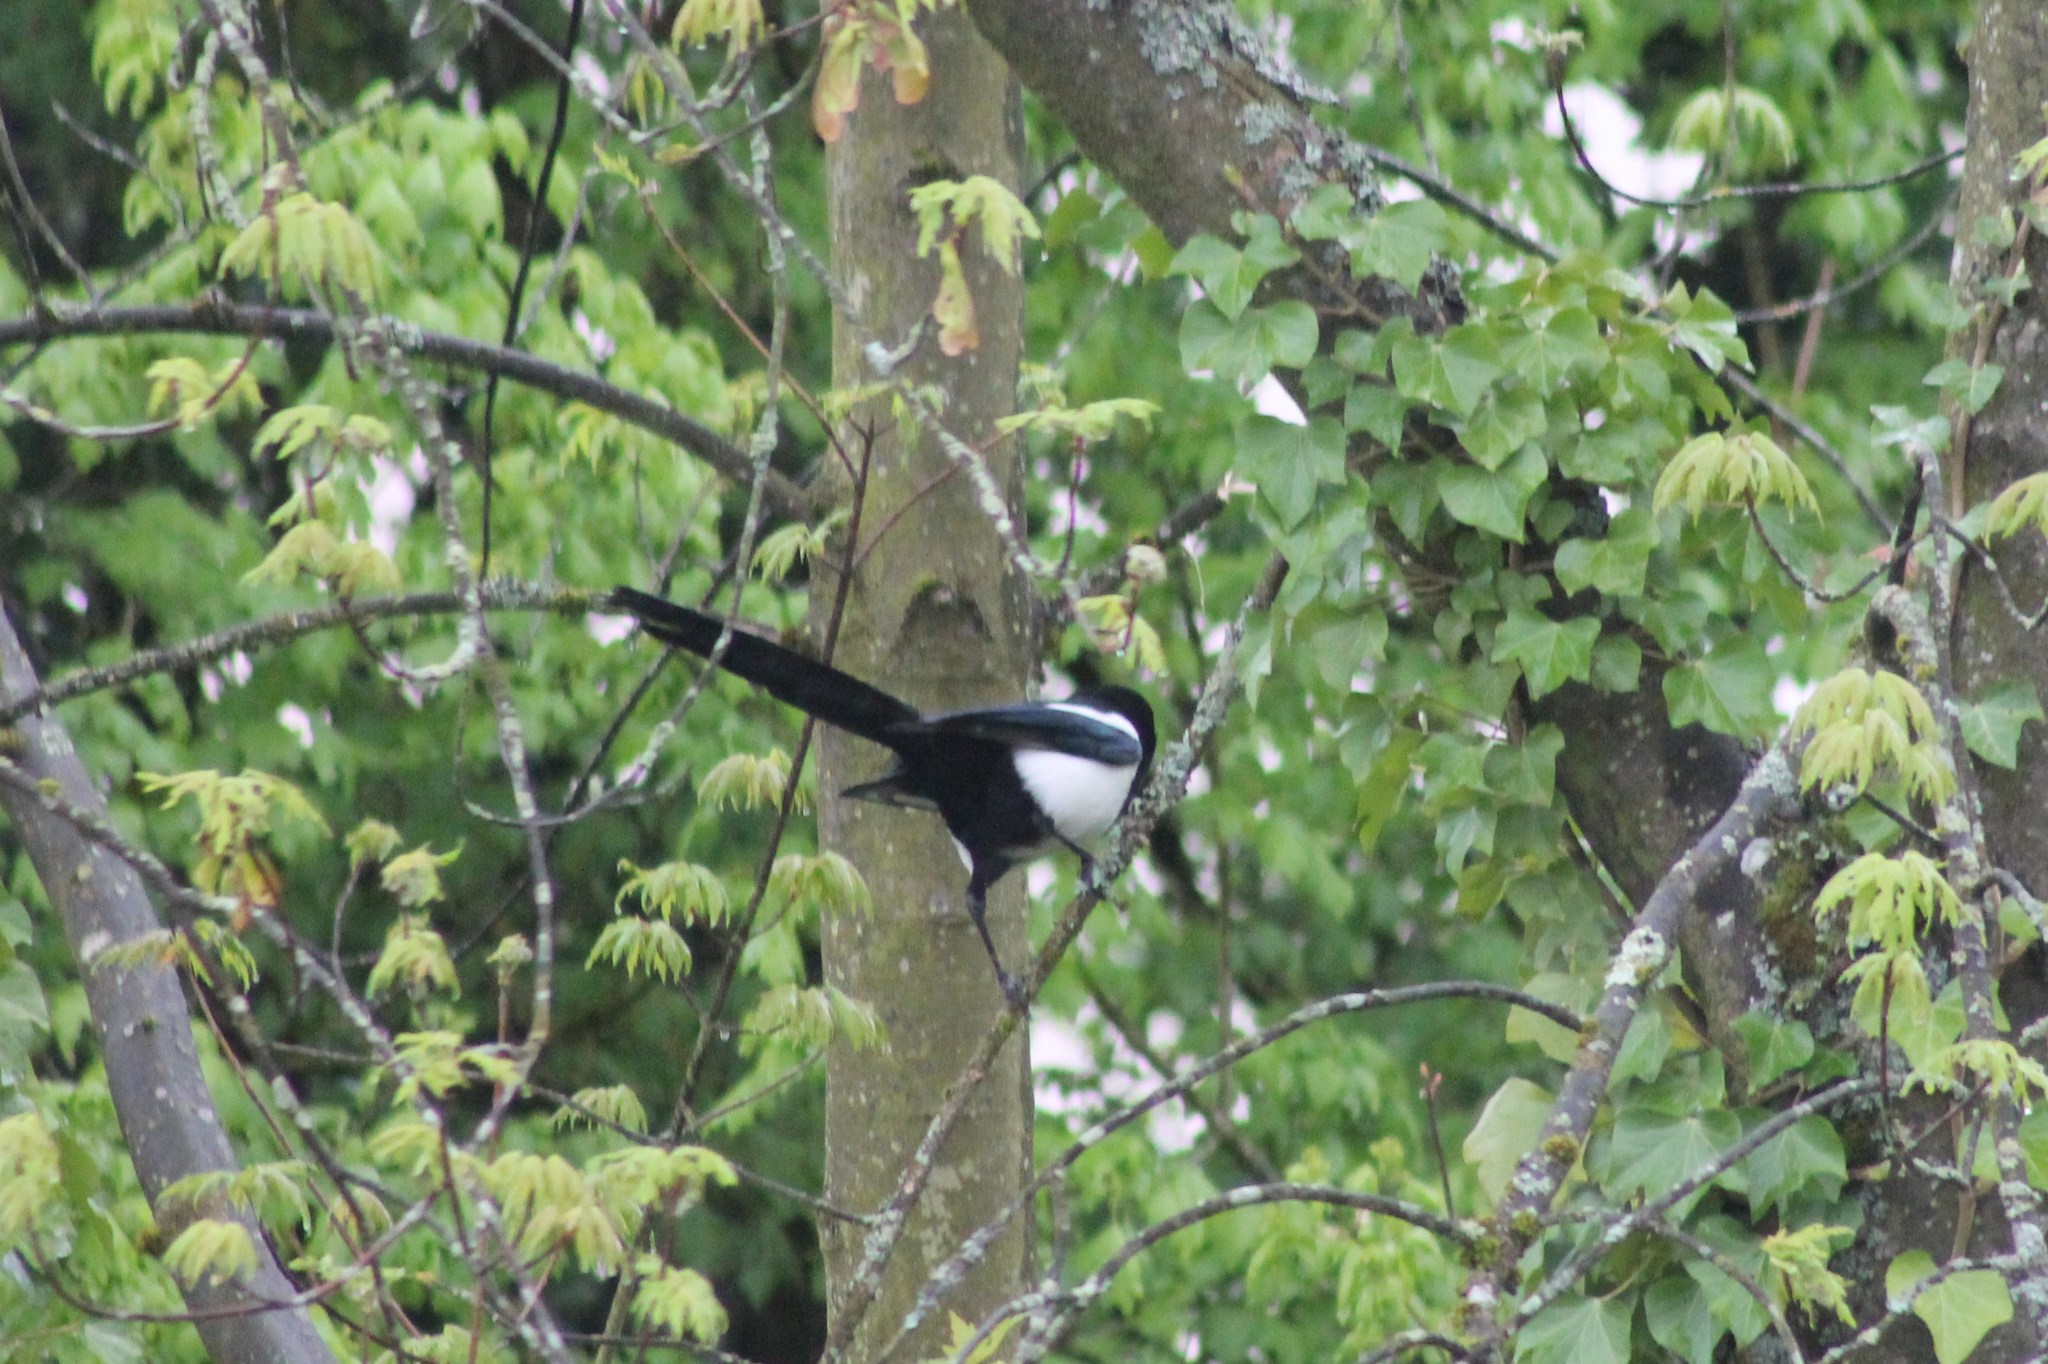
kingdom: Animalia
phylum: Chordata
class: Aves
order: Passeriformes
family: Corvidae
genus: Pica
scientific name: Pica pica
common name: Eurasian magpie
